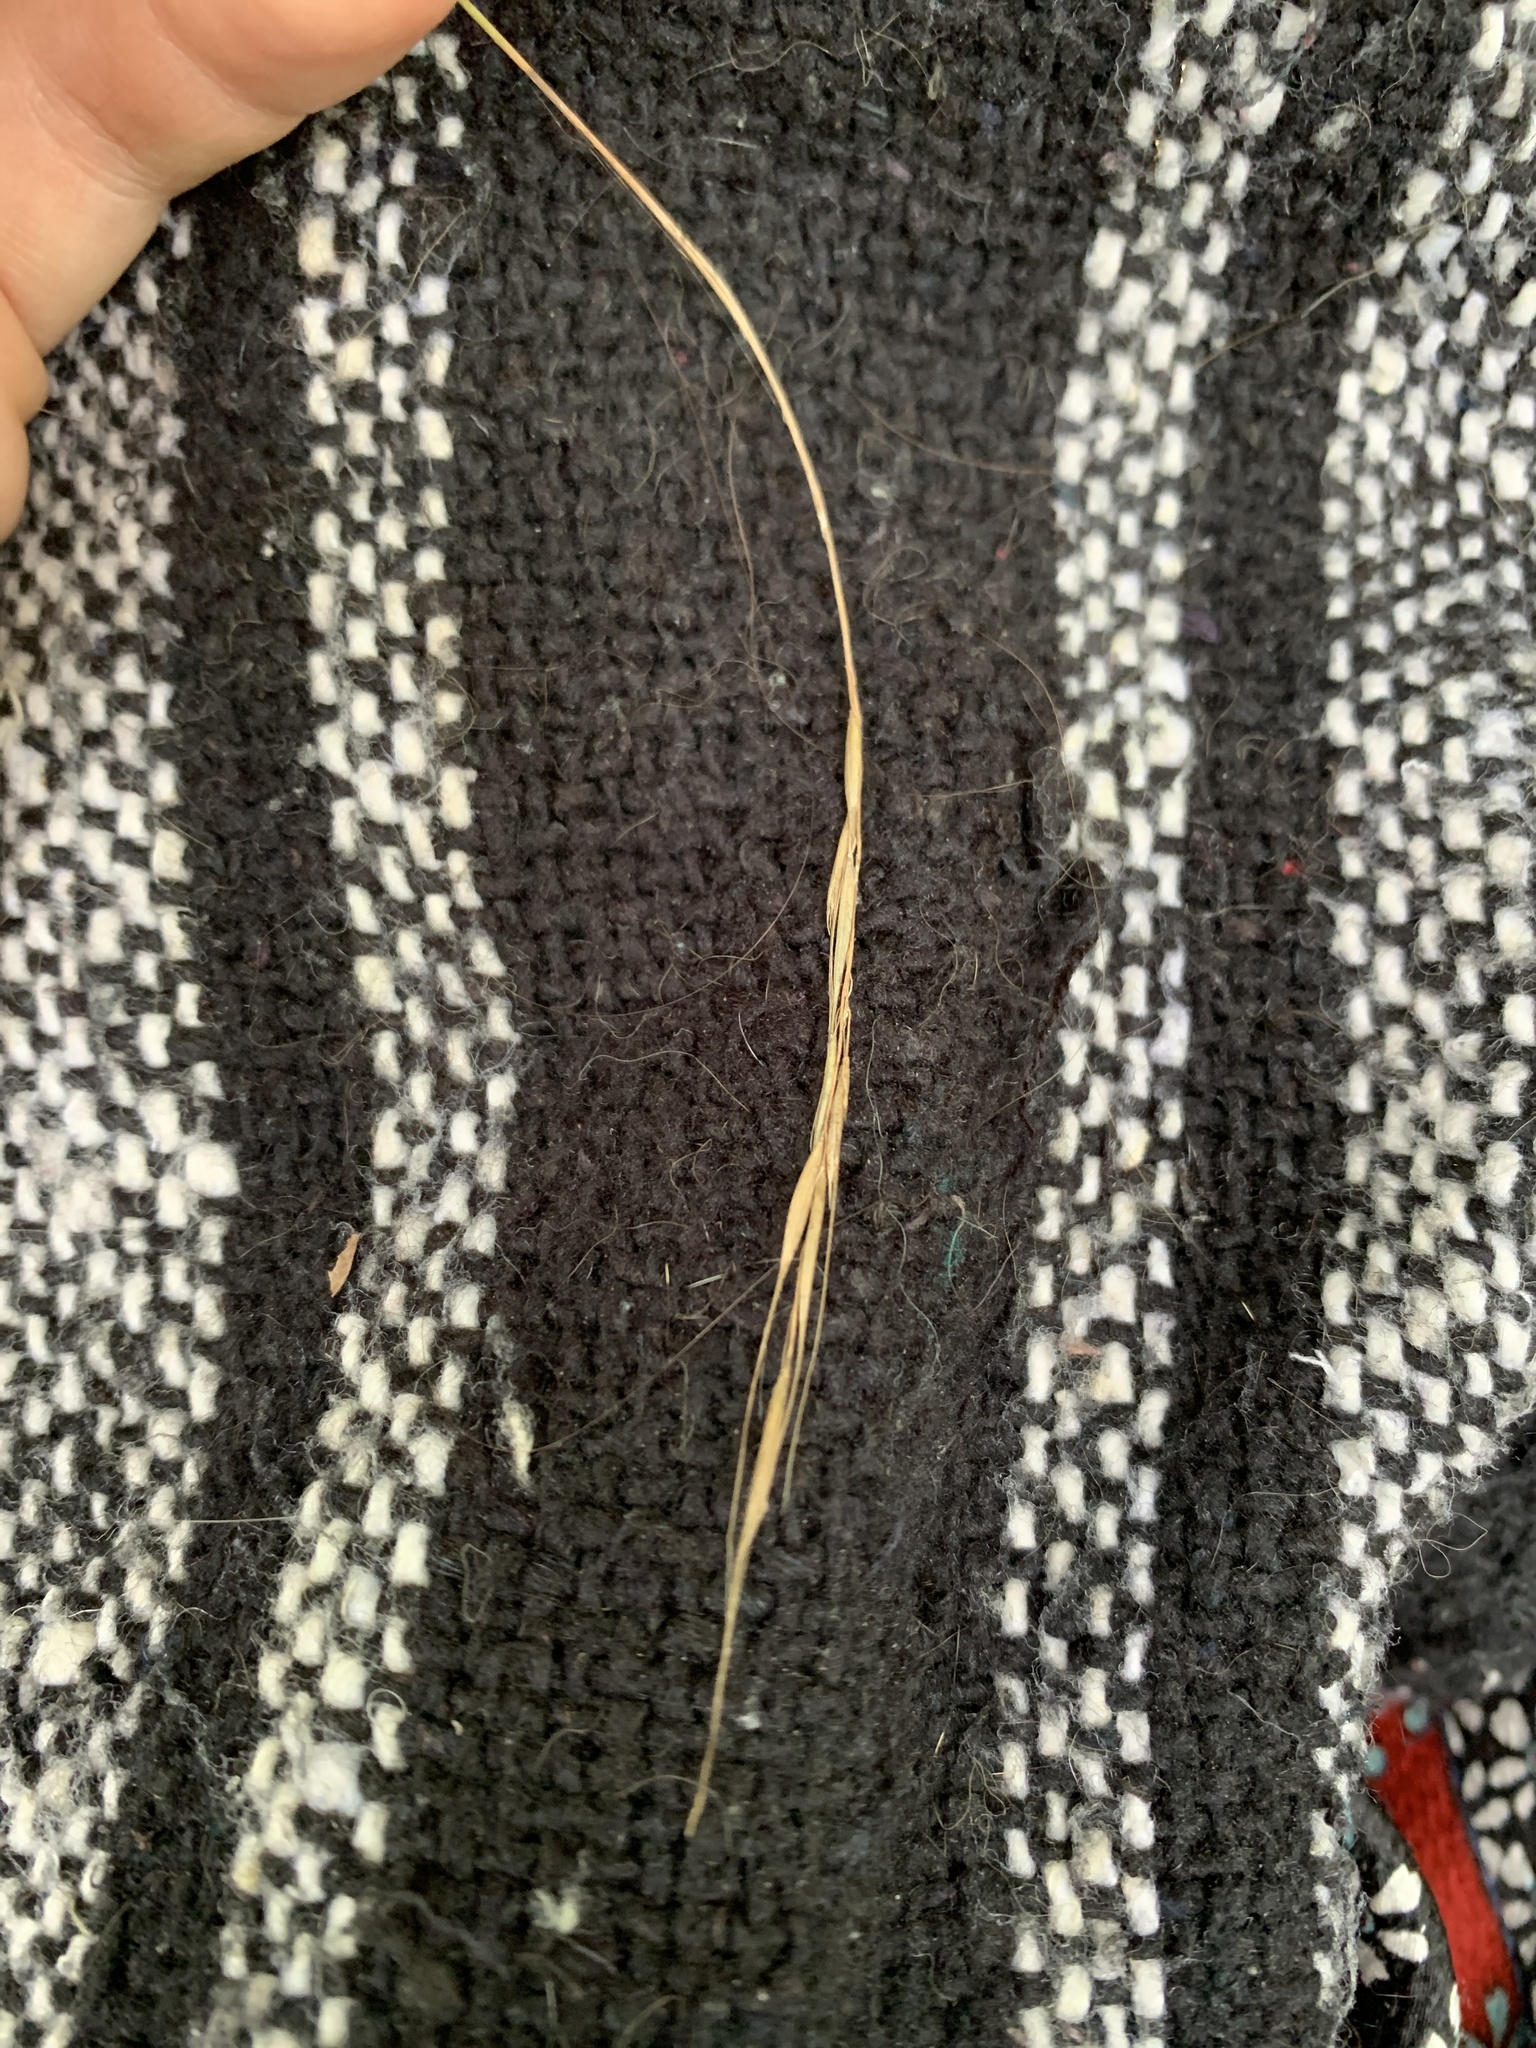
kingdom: Plantae
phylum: Tracheophyta
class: Liliopsida
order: Poales
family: Poaceae
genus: Brachyelytrum
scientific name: Brachyelytrum aristosum
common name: Northern shorthusk
